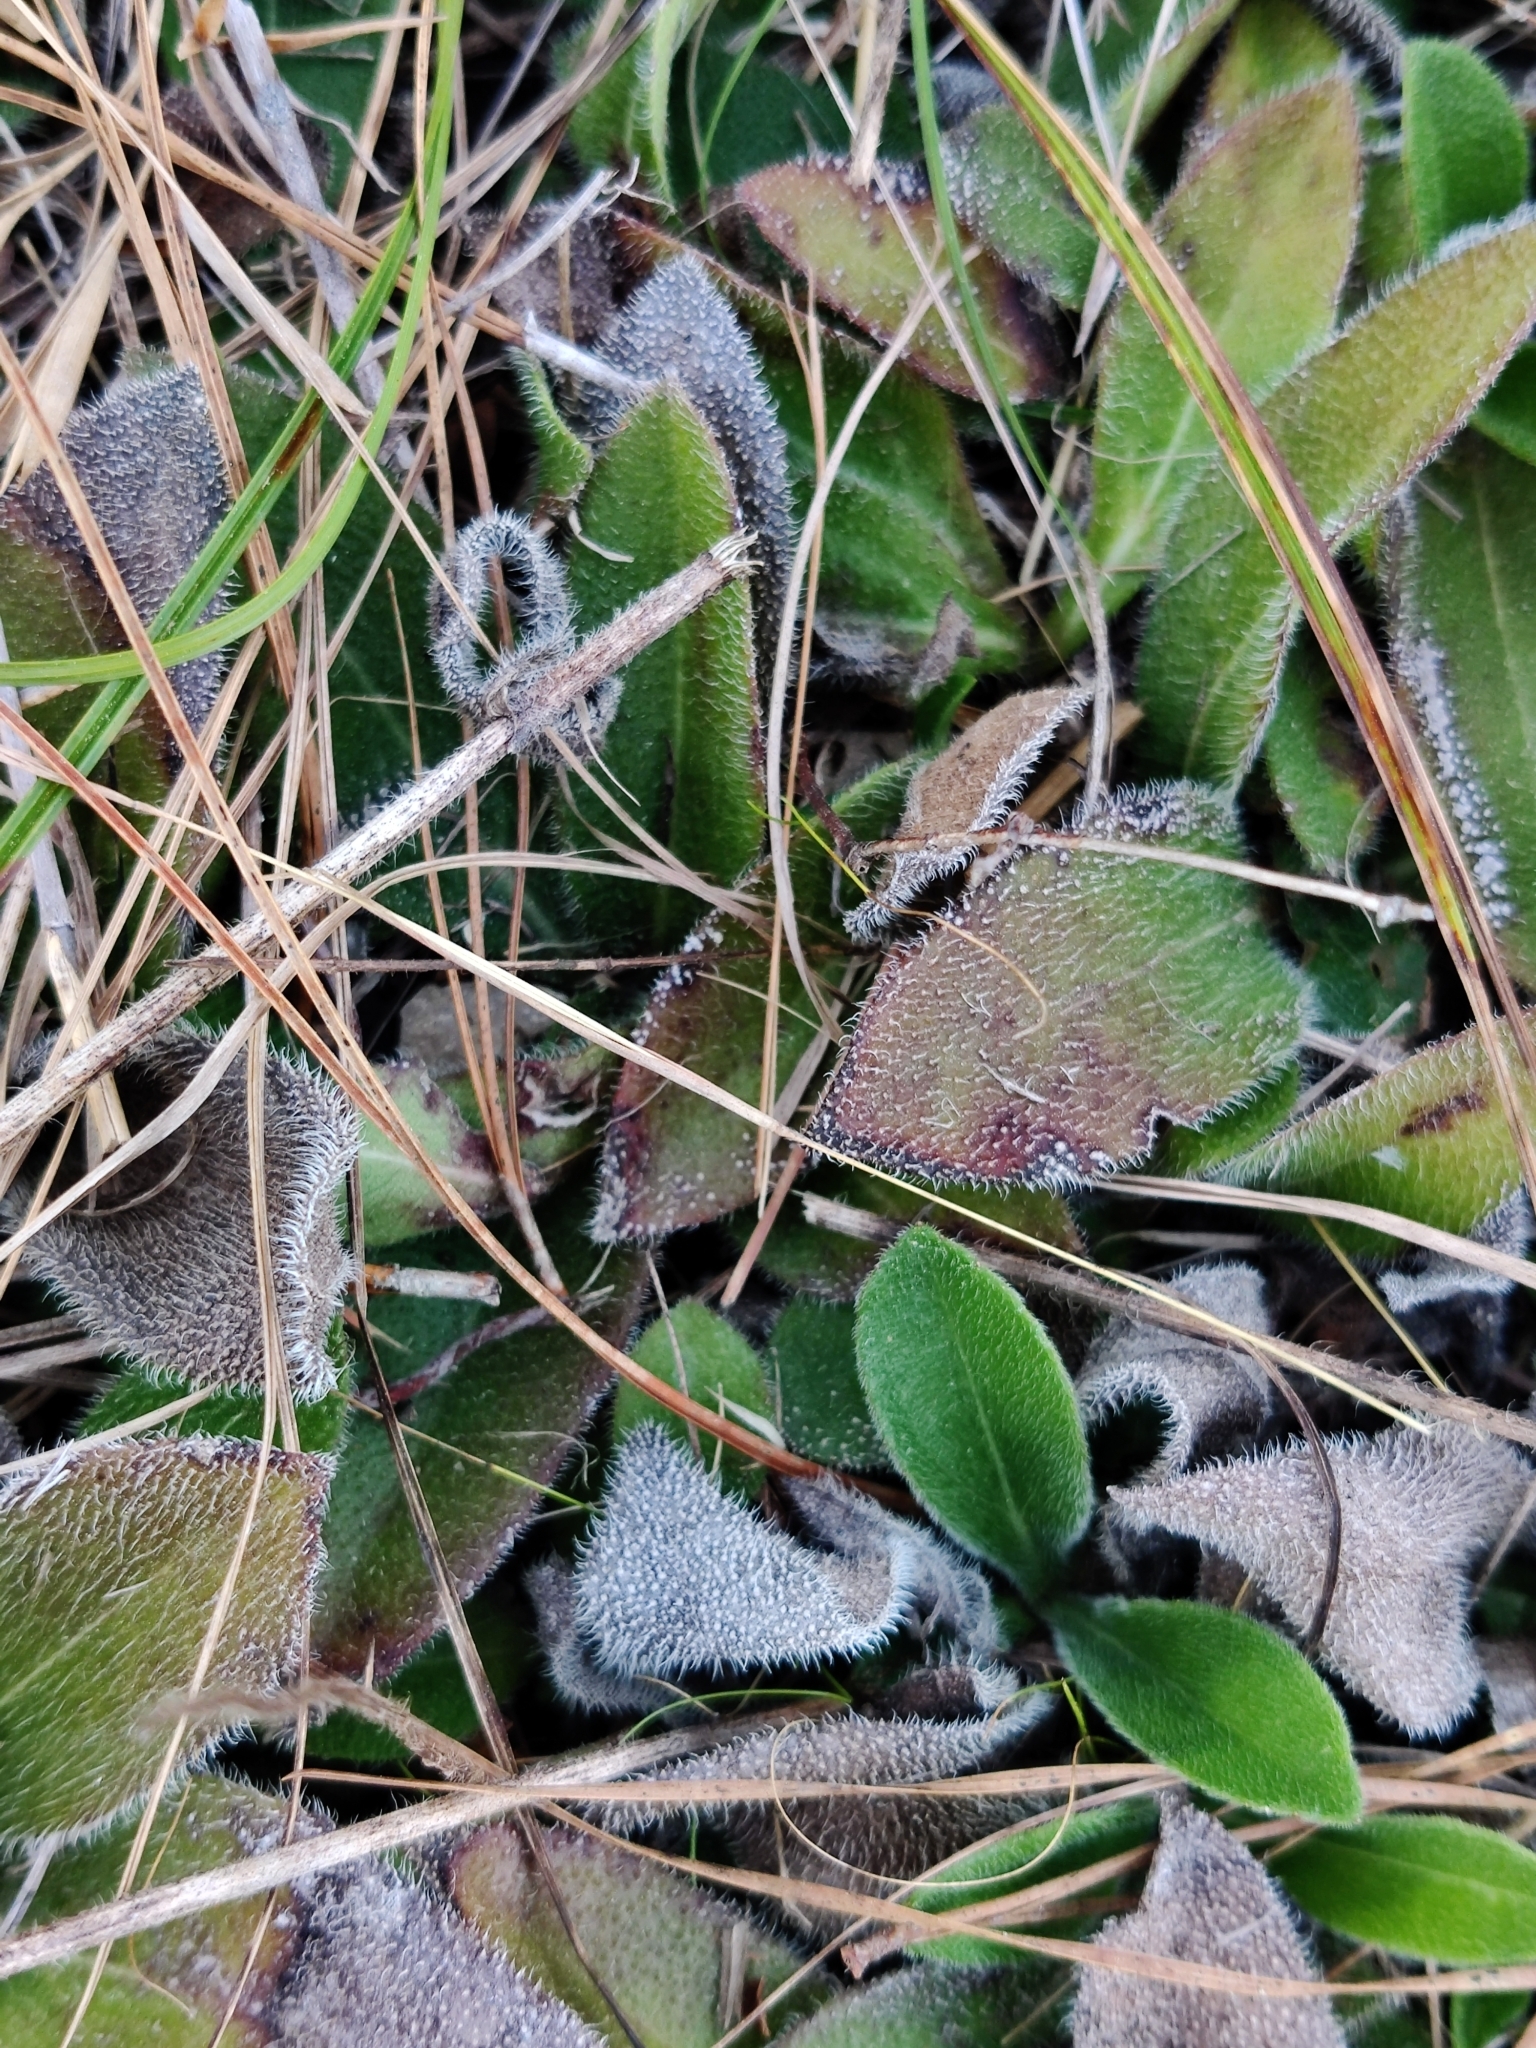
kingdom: Plantae
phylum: Tracheophyta
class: Magnoliopsida
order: Asterales
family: Asteraceae
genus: Helianthus
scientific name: Helianthus heterophyllus
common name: Wetland sunflower
